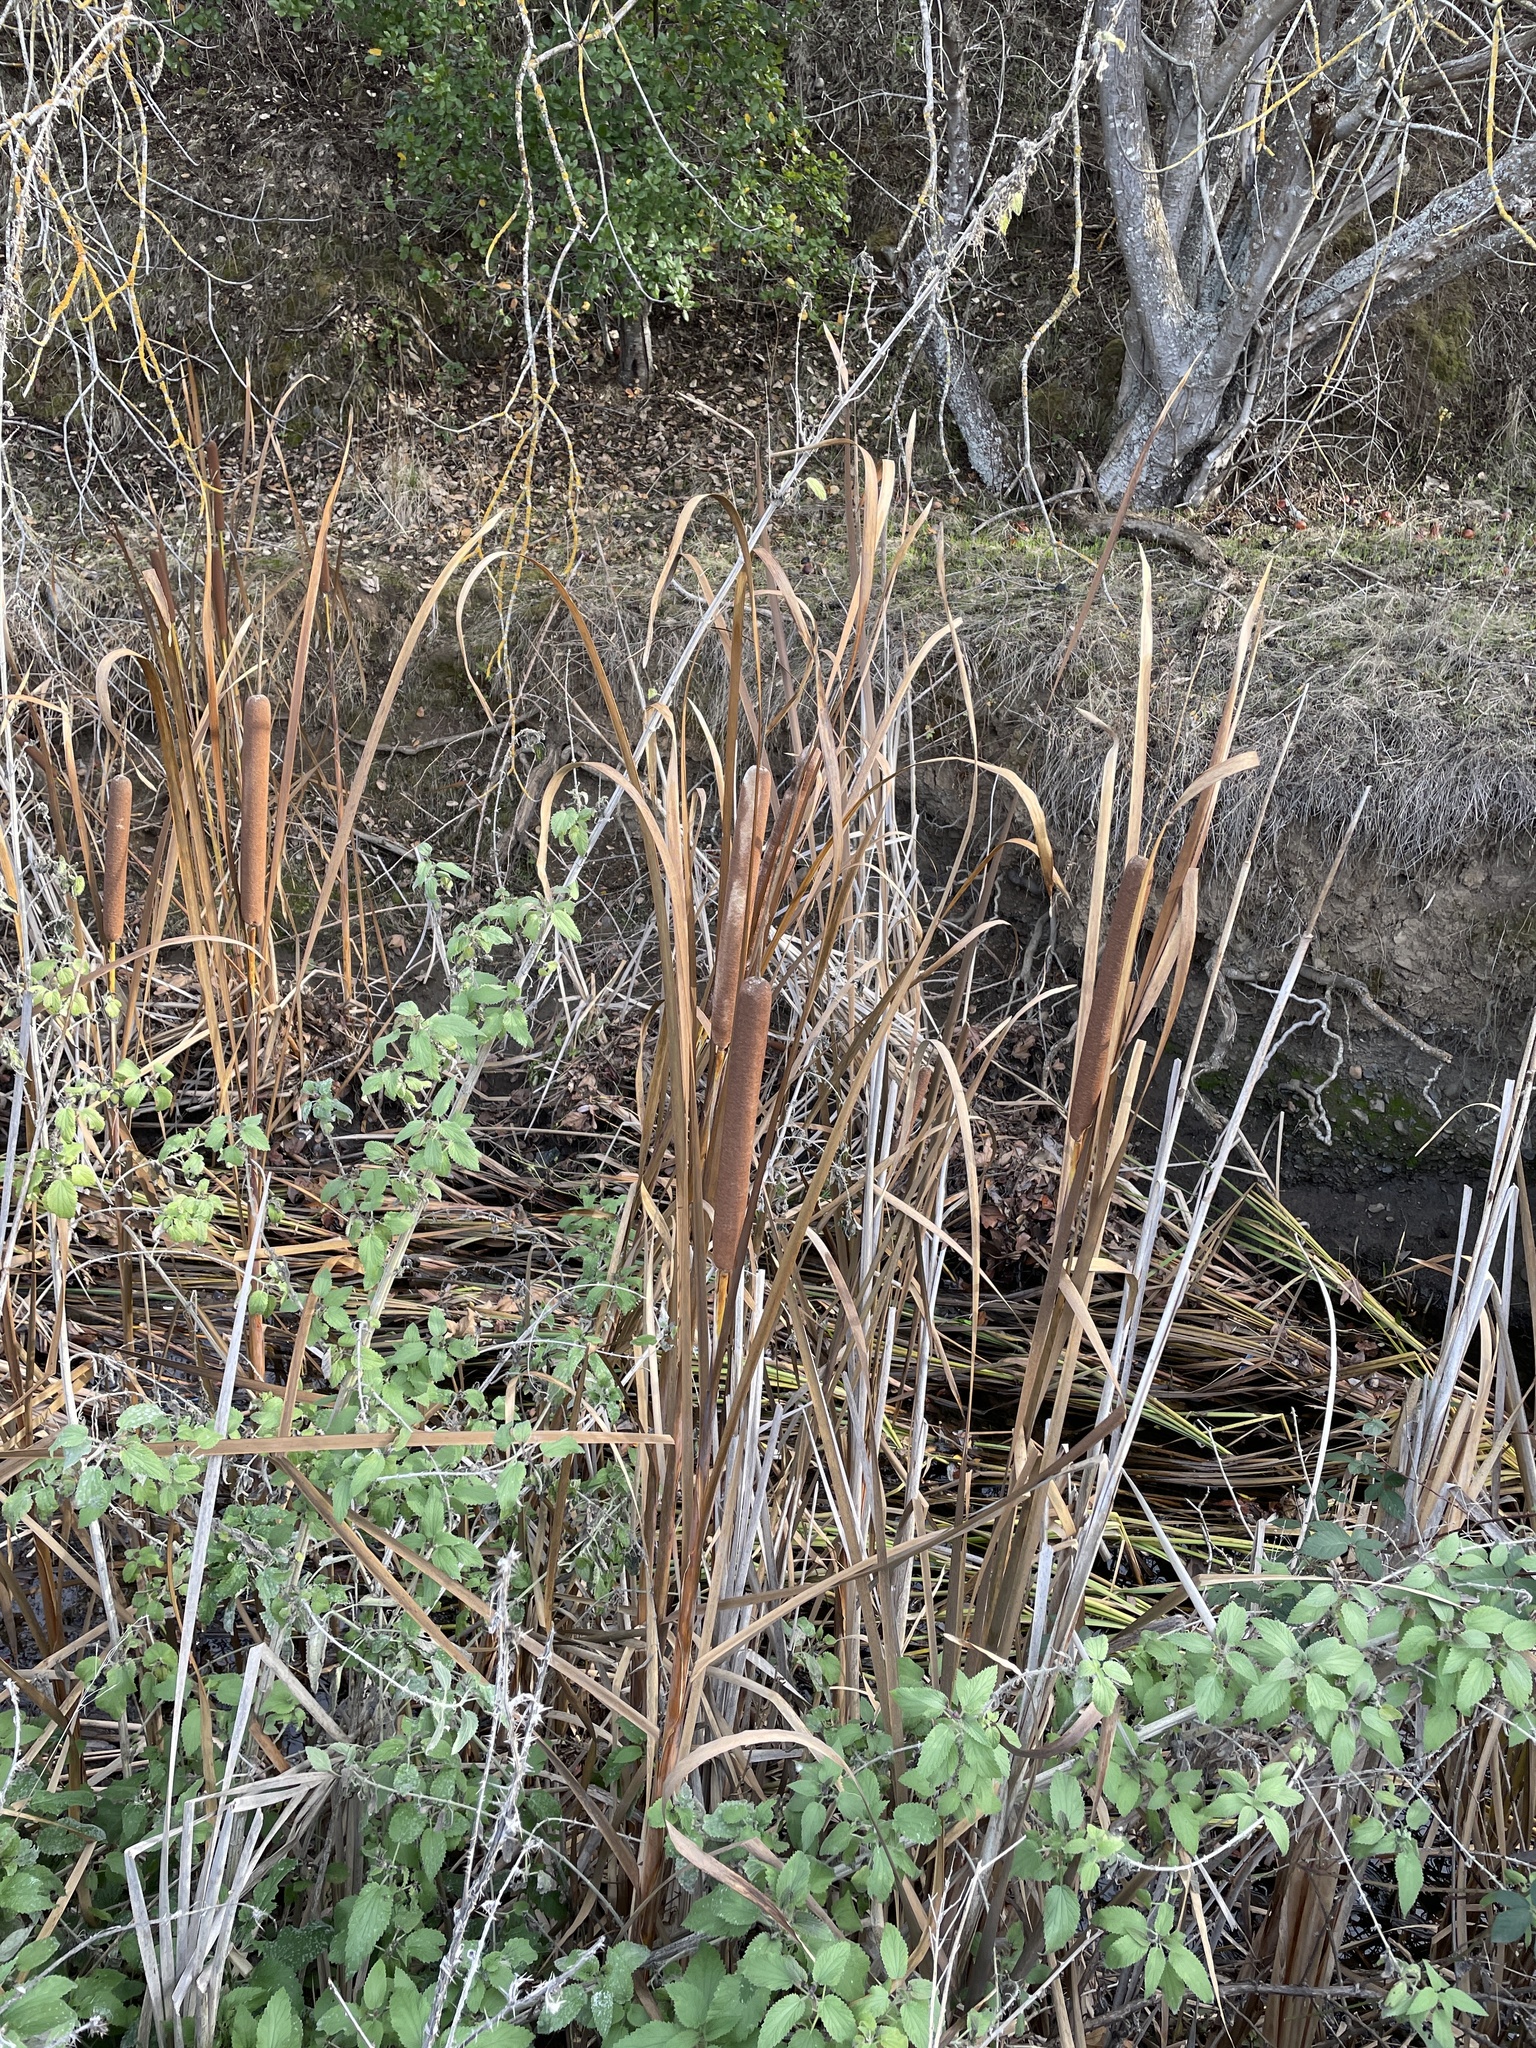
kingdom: Plantae
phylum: Tracheophyta
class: Magnoliopsida
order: Rosales
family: Urticaceae
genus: Urtica
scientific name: Urtica dioica
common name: Common nettle
